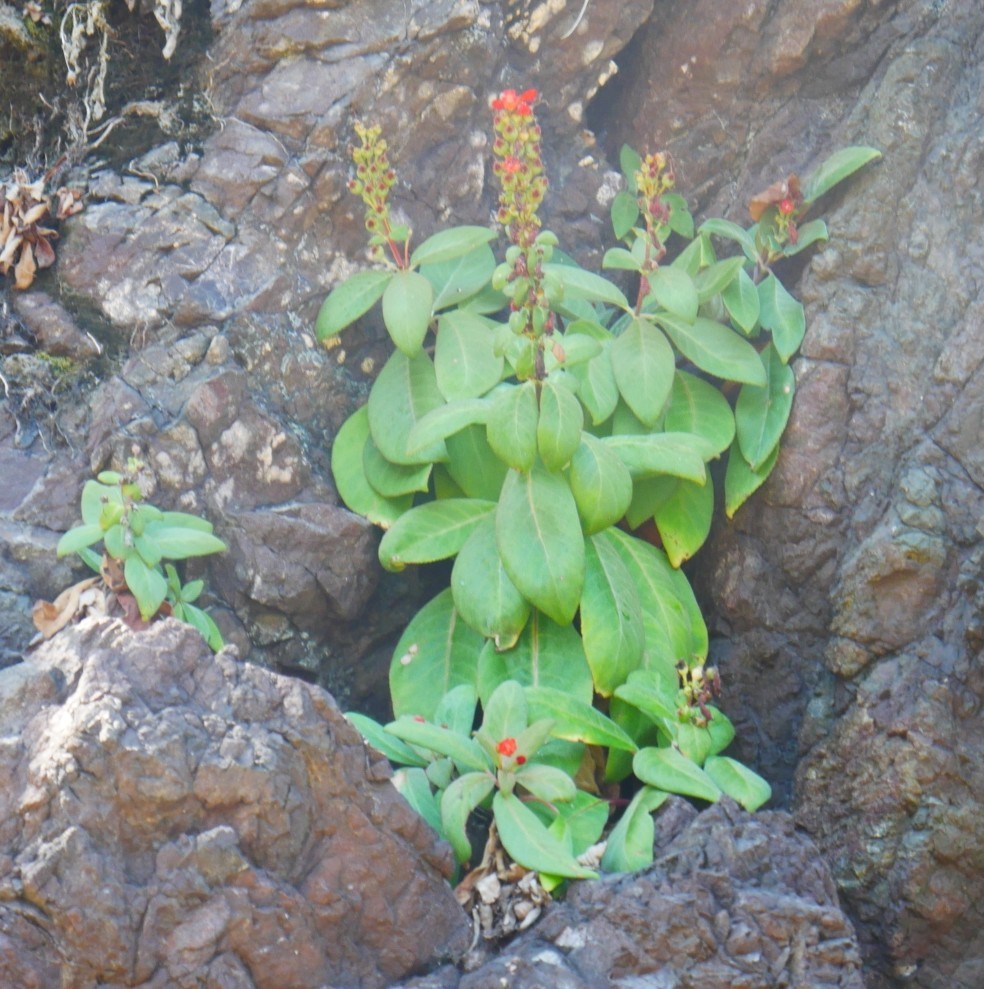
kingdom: Plantae
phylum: Tracheophyta
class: Magnoliopsida
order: Lamiales
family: Gesneriaceae
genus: Kohleria
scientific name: Kohleria spicata
